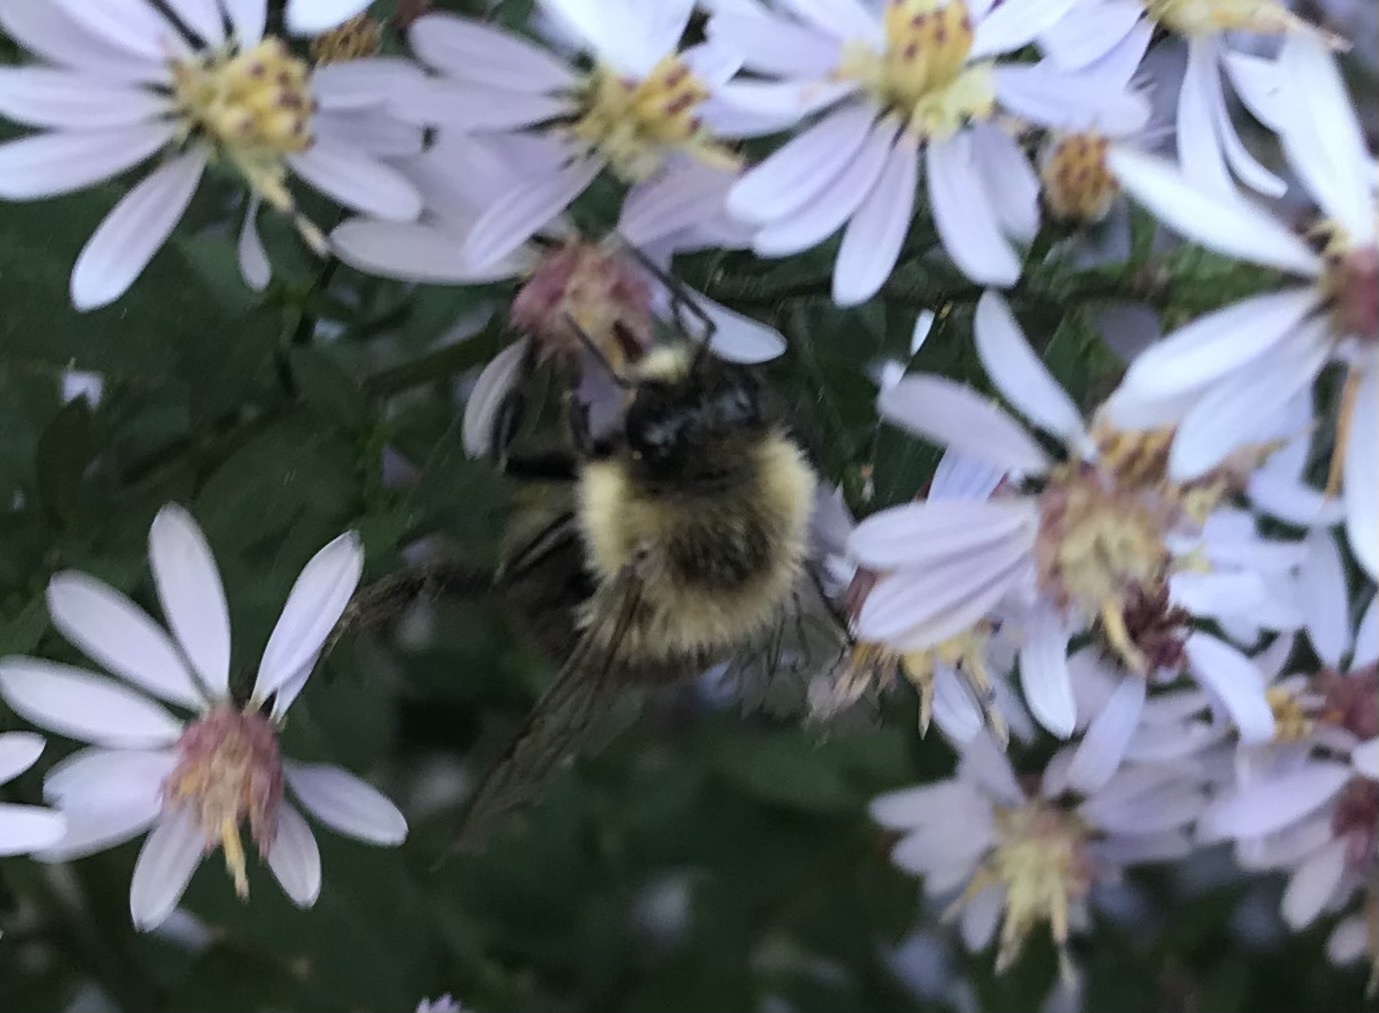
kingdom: Animalia
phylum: Arthropoda
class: Insecta
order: Hymenoptera
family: Apidae
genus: Bombus
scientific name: Bombus impatiens
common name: Common eastern bumble bee
